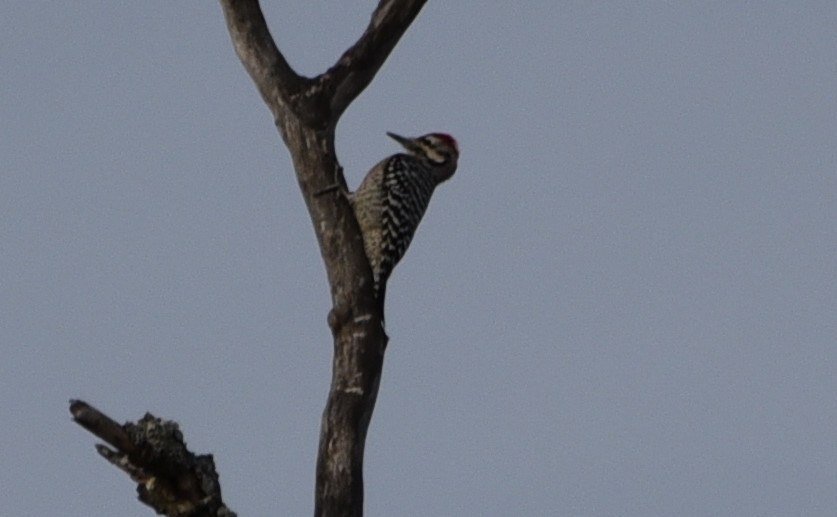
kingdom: Animalia
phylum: Chordata
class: Aves
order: Piciformes
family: Picidae
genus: Dryobates
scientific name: Dryobates scalaris
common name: Ladder-backed woodpecker
